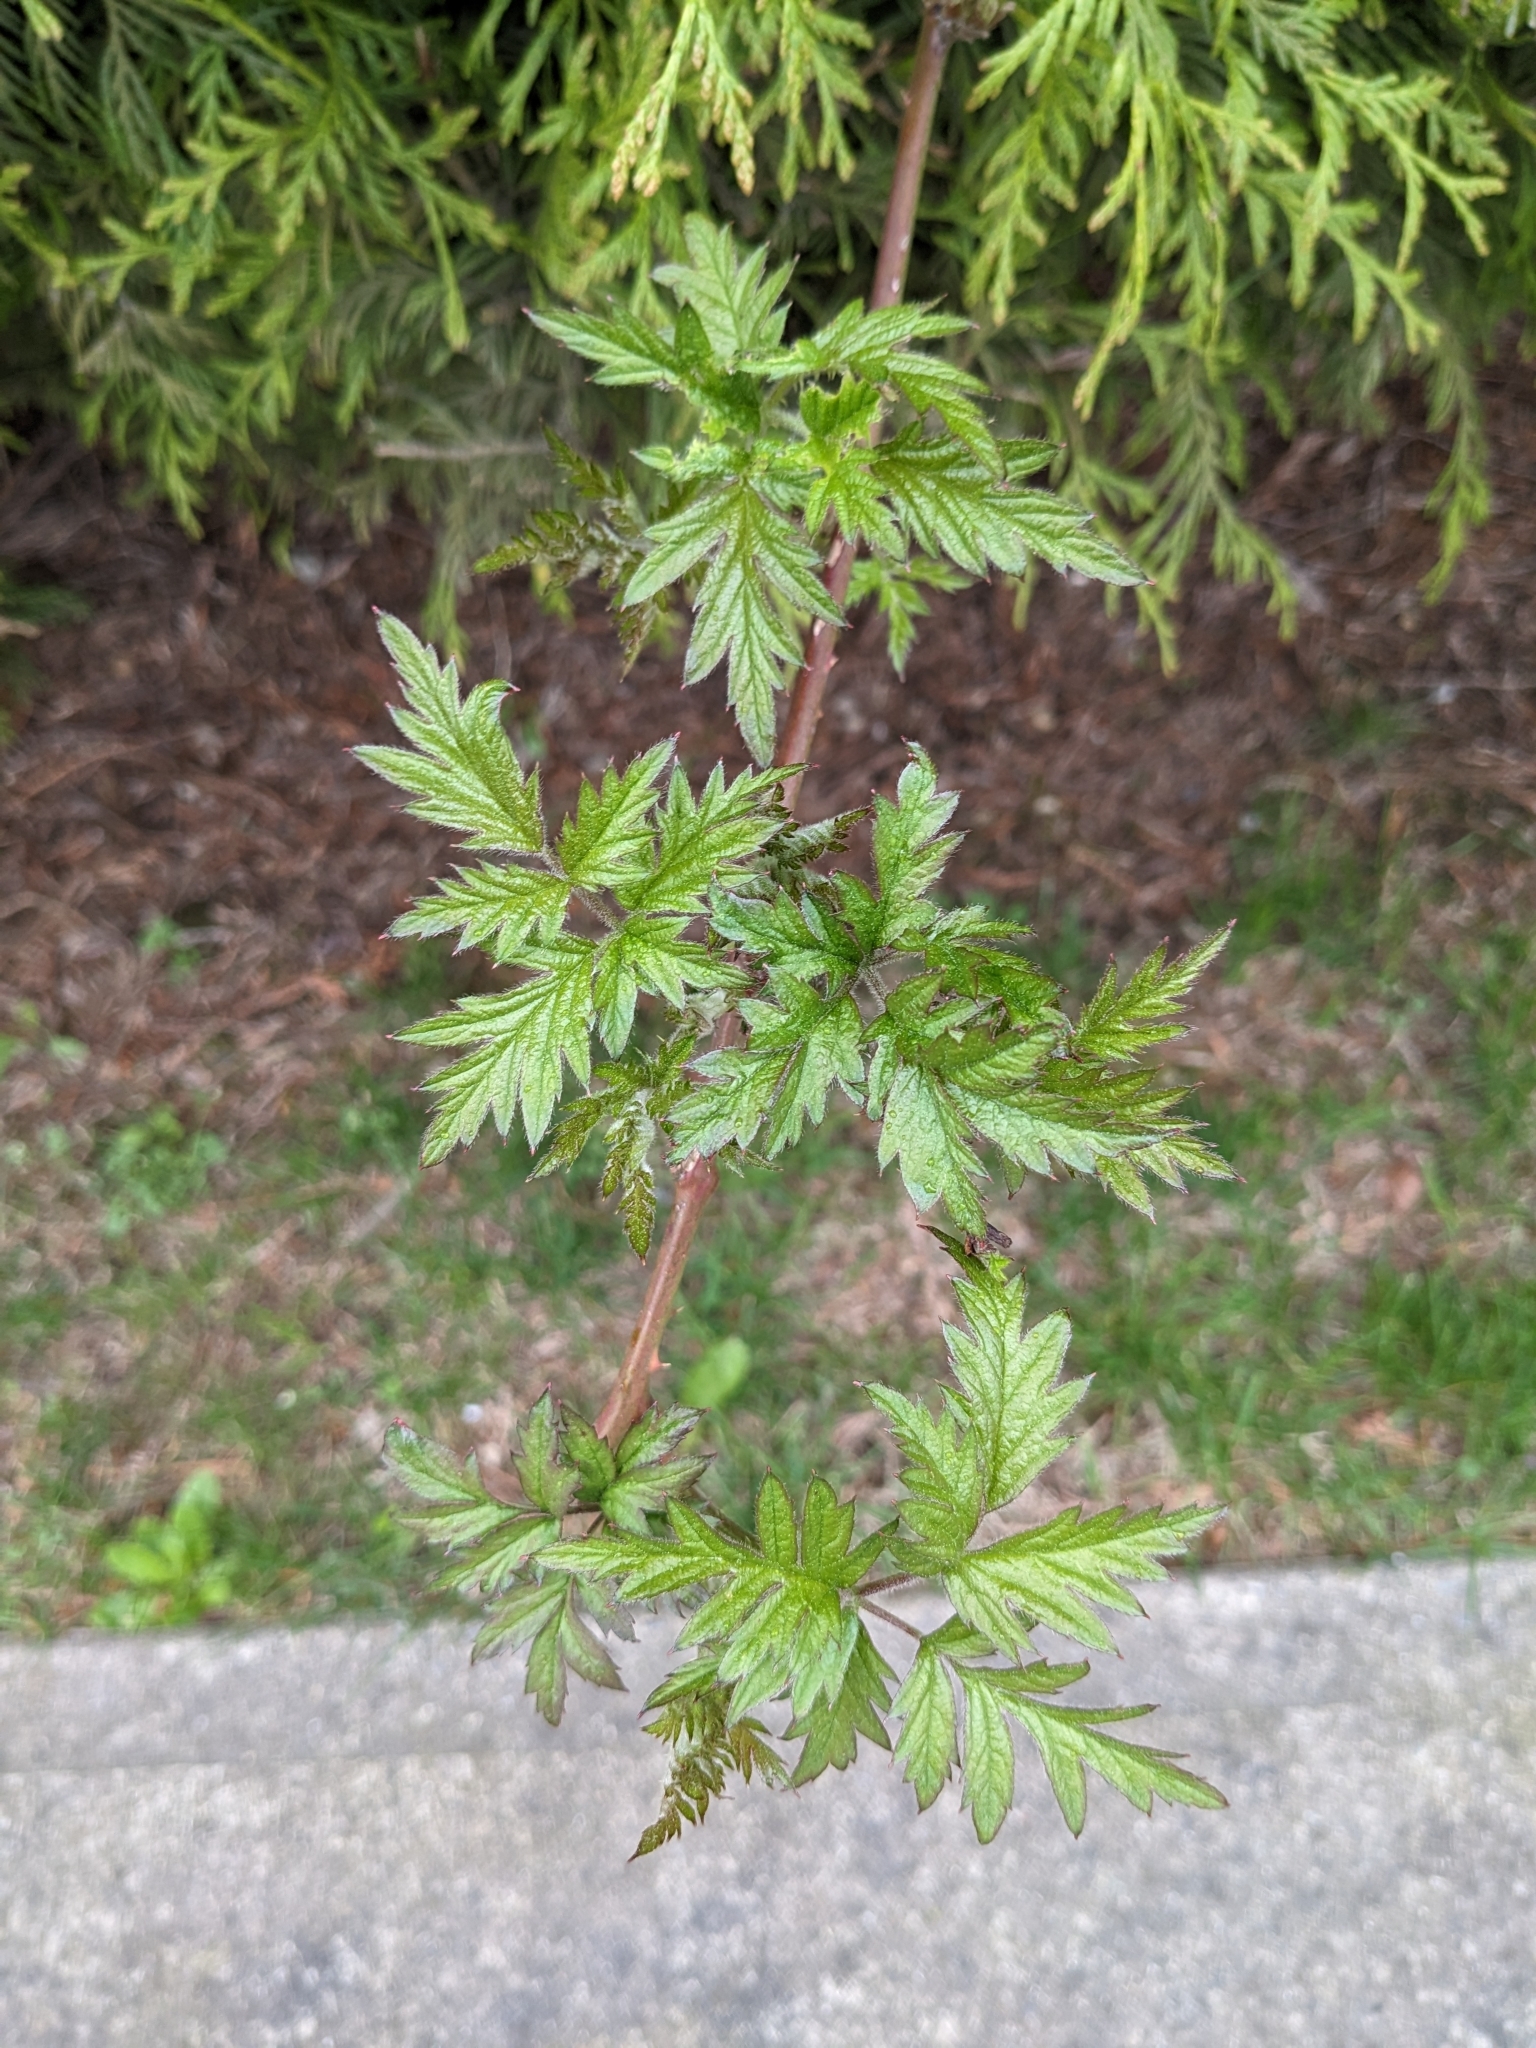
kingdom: Plantae
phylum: Tracheophyta
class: Magnoliopsida
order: Rosales
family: Rosaceae
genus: Rubus
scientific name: Rubus laciniatus
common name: Evergreen blackberry
